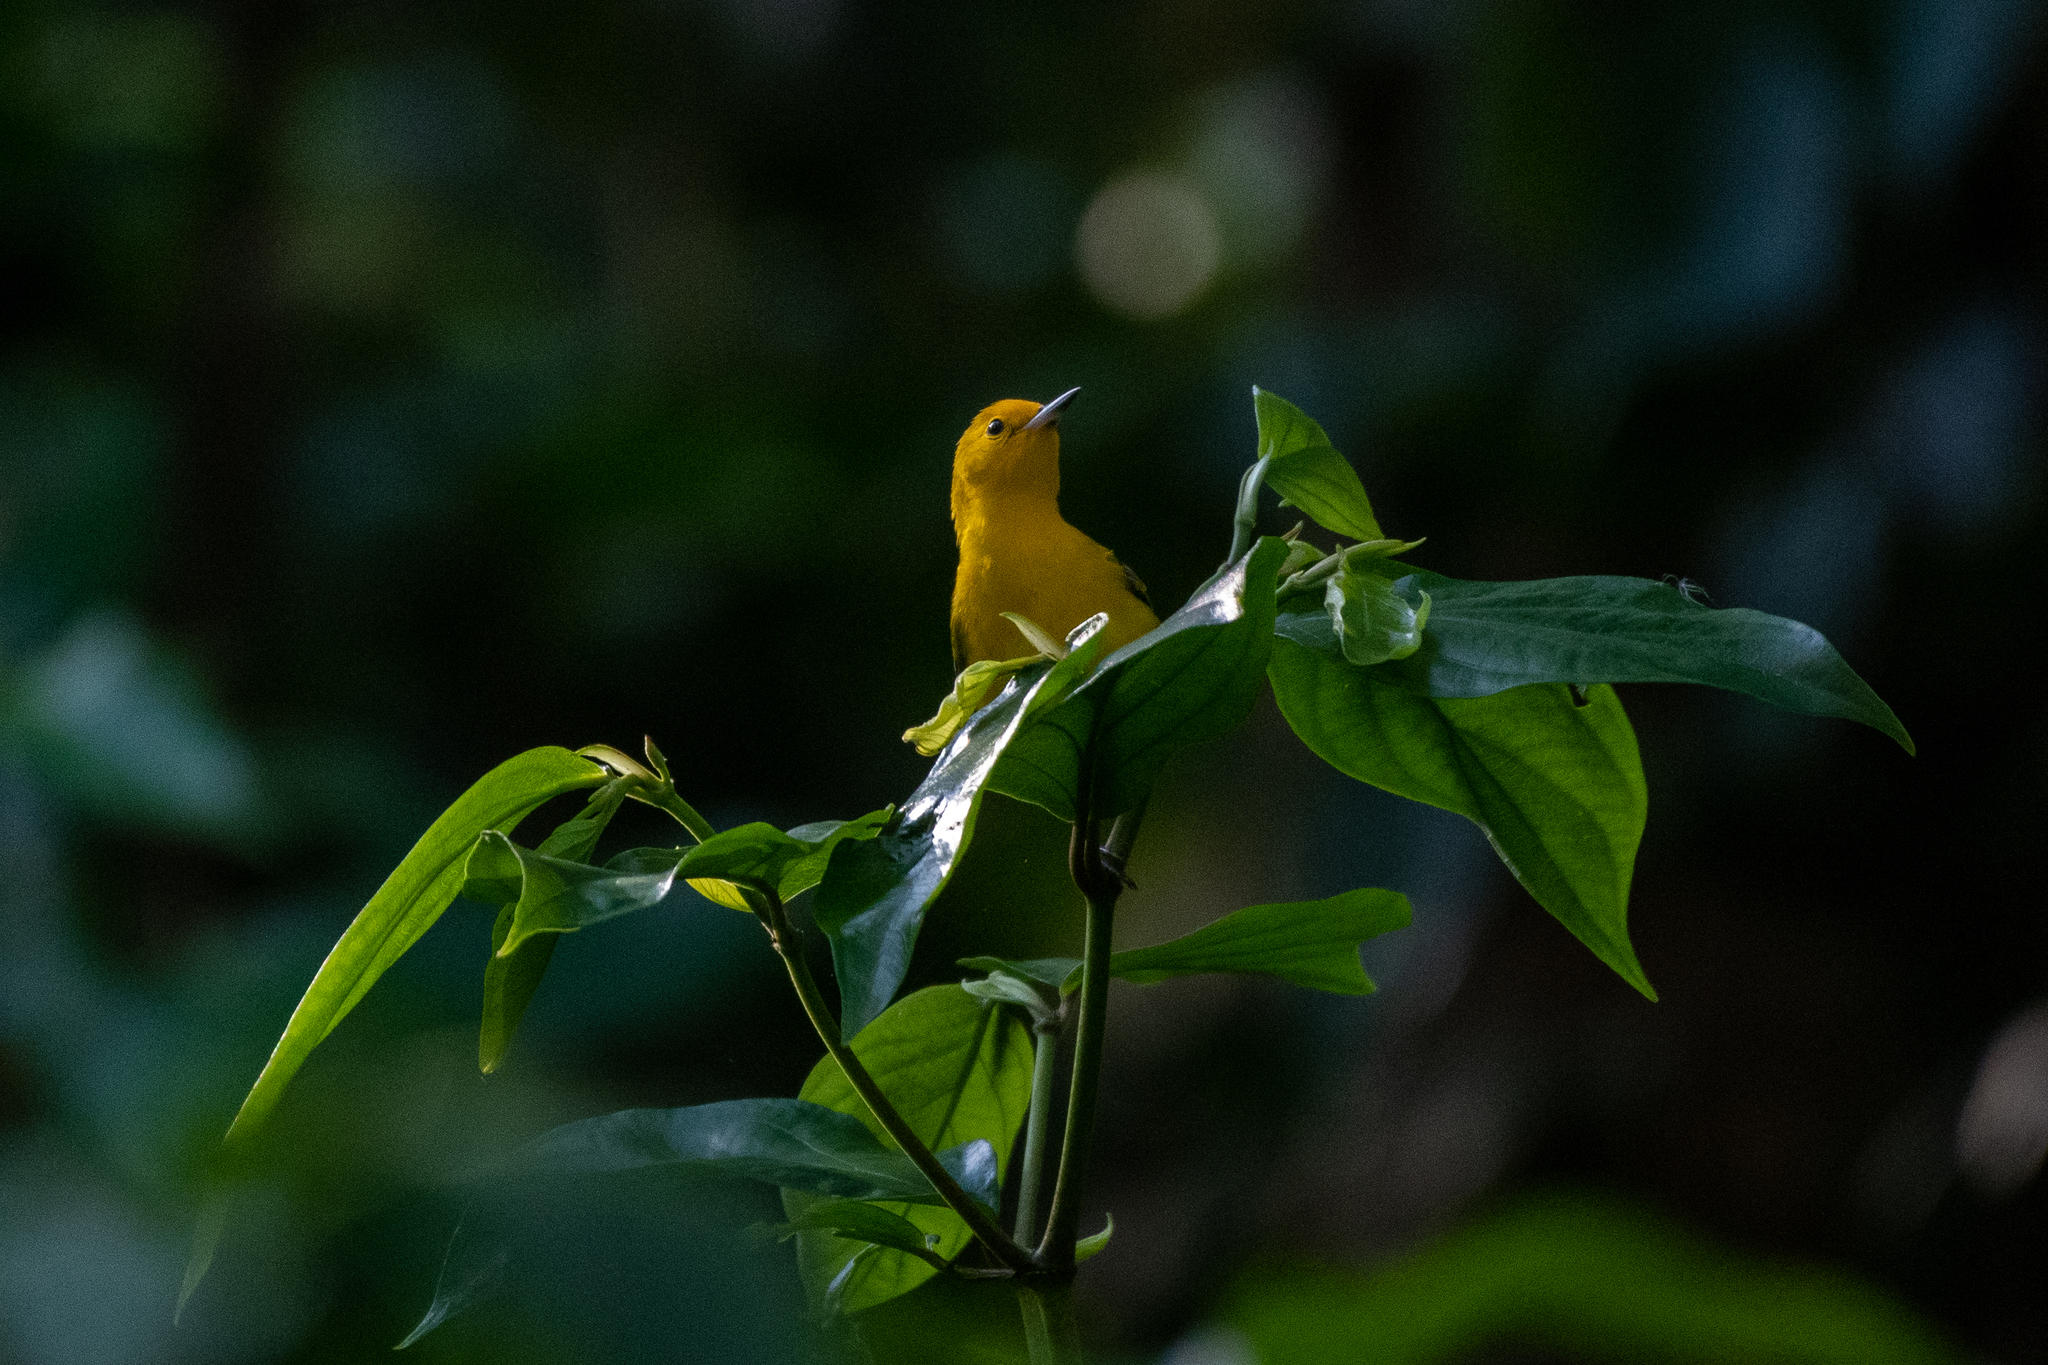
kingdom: Animalia
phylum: Chordata
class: Aves
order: Passeriformes
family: Parulidae
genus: Protonotaria
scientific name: Protonotaria citrea
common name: Prothonotary warbler
